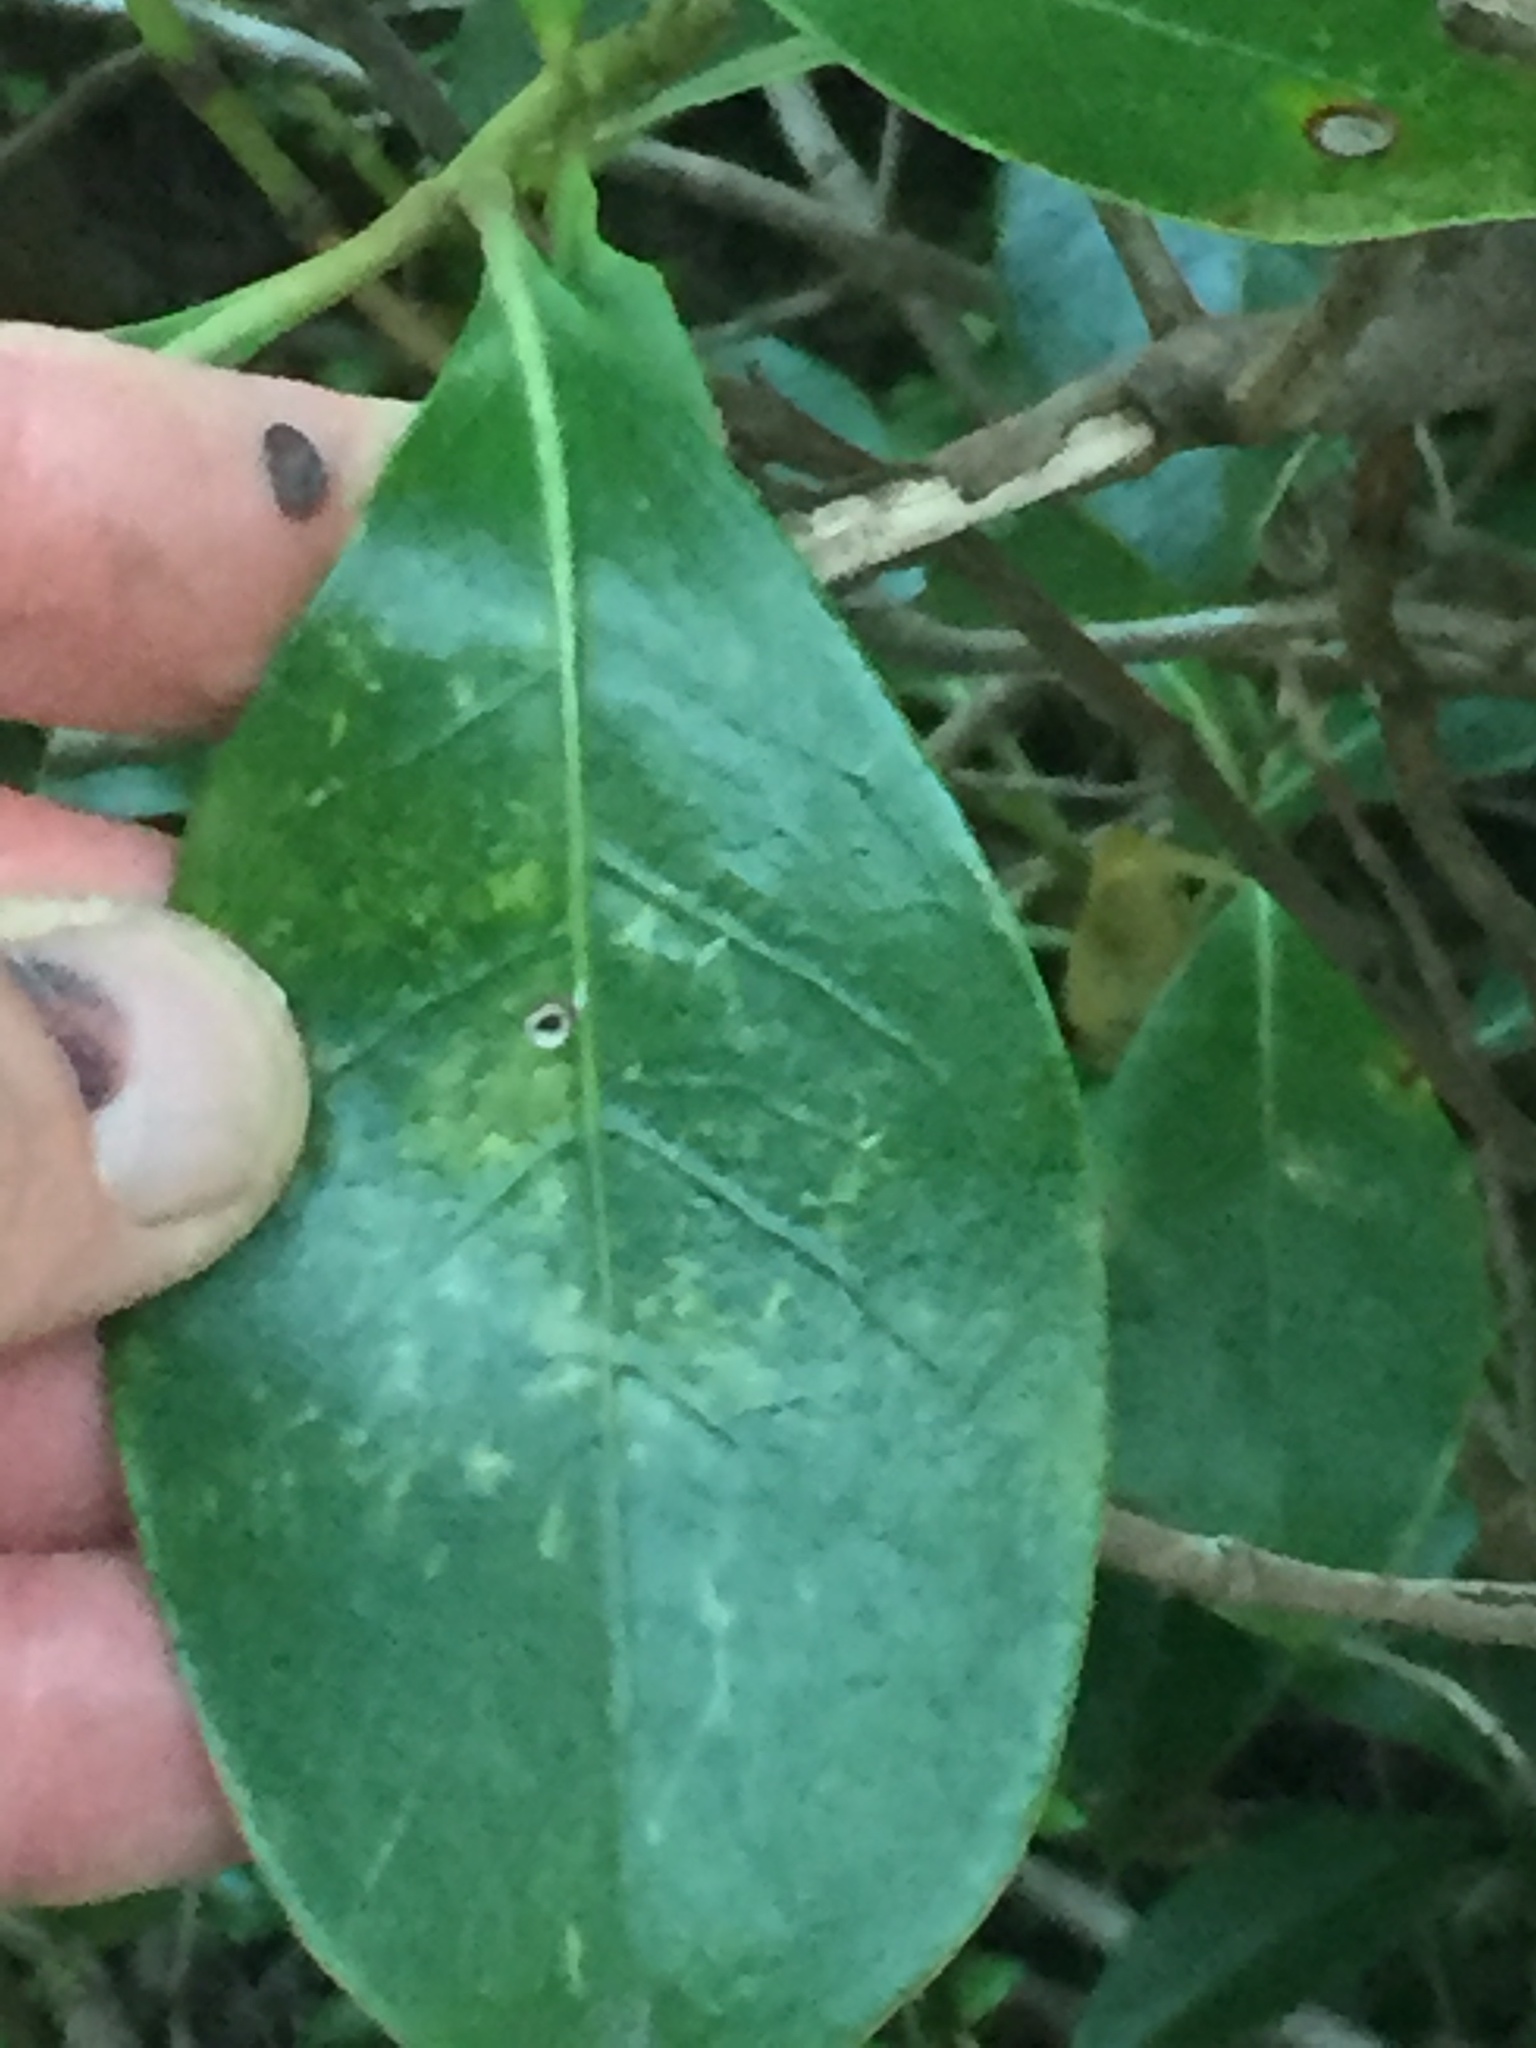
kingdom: Plantae
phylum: Tracheophyta
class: Magnoliopsida
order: Gentianales
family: Rubiaceae
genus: Coprosma
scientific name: Coprosma lucida
